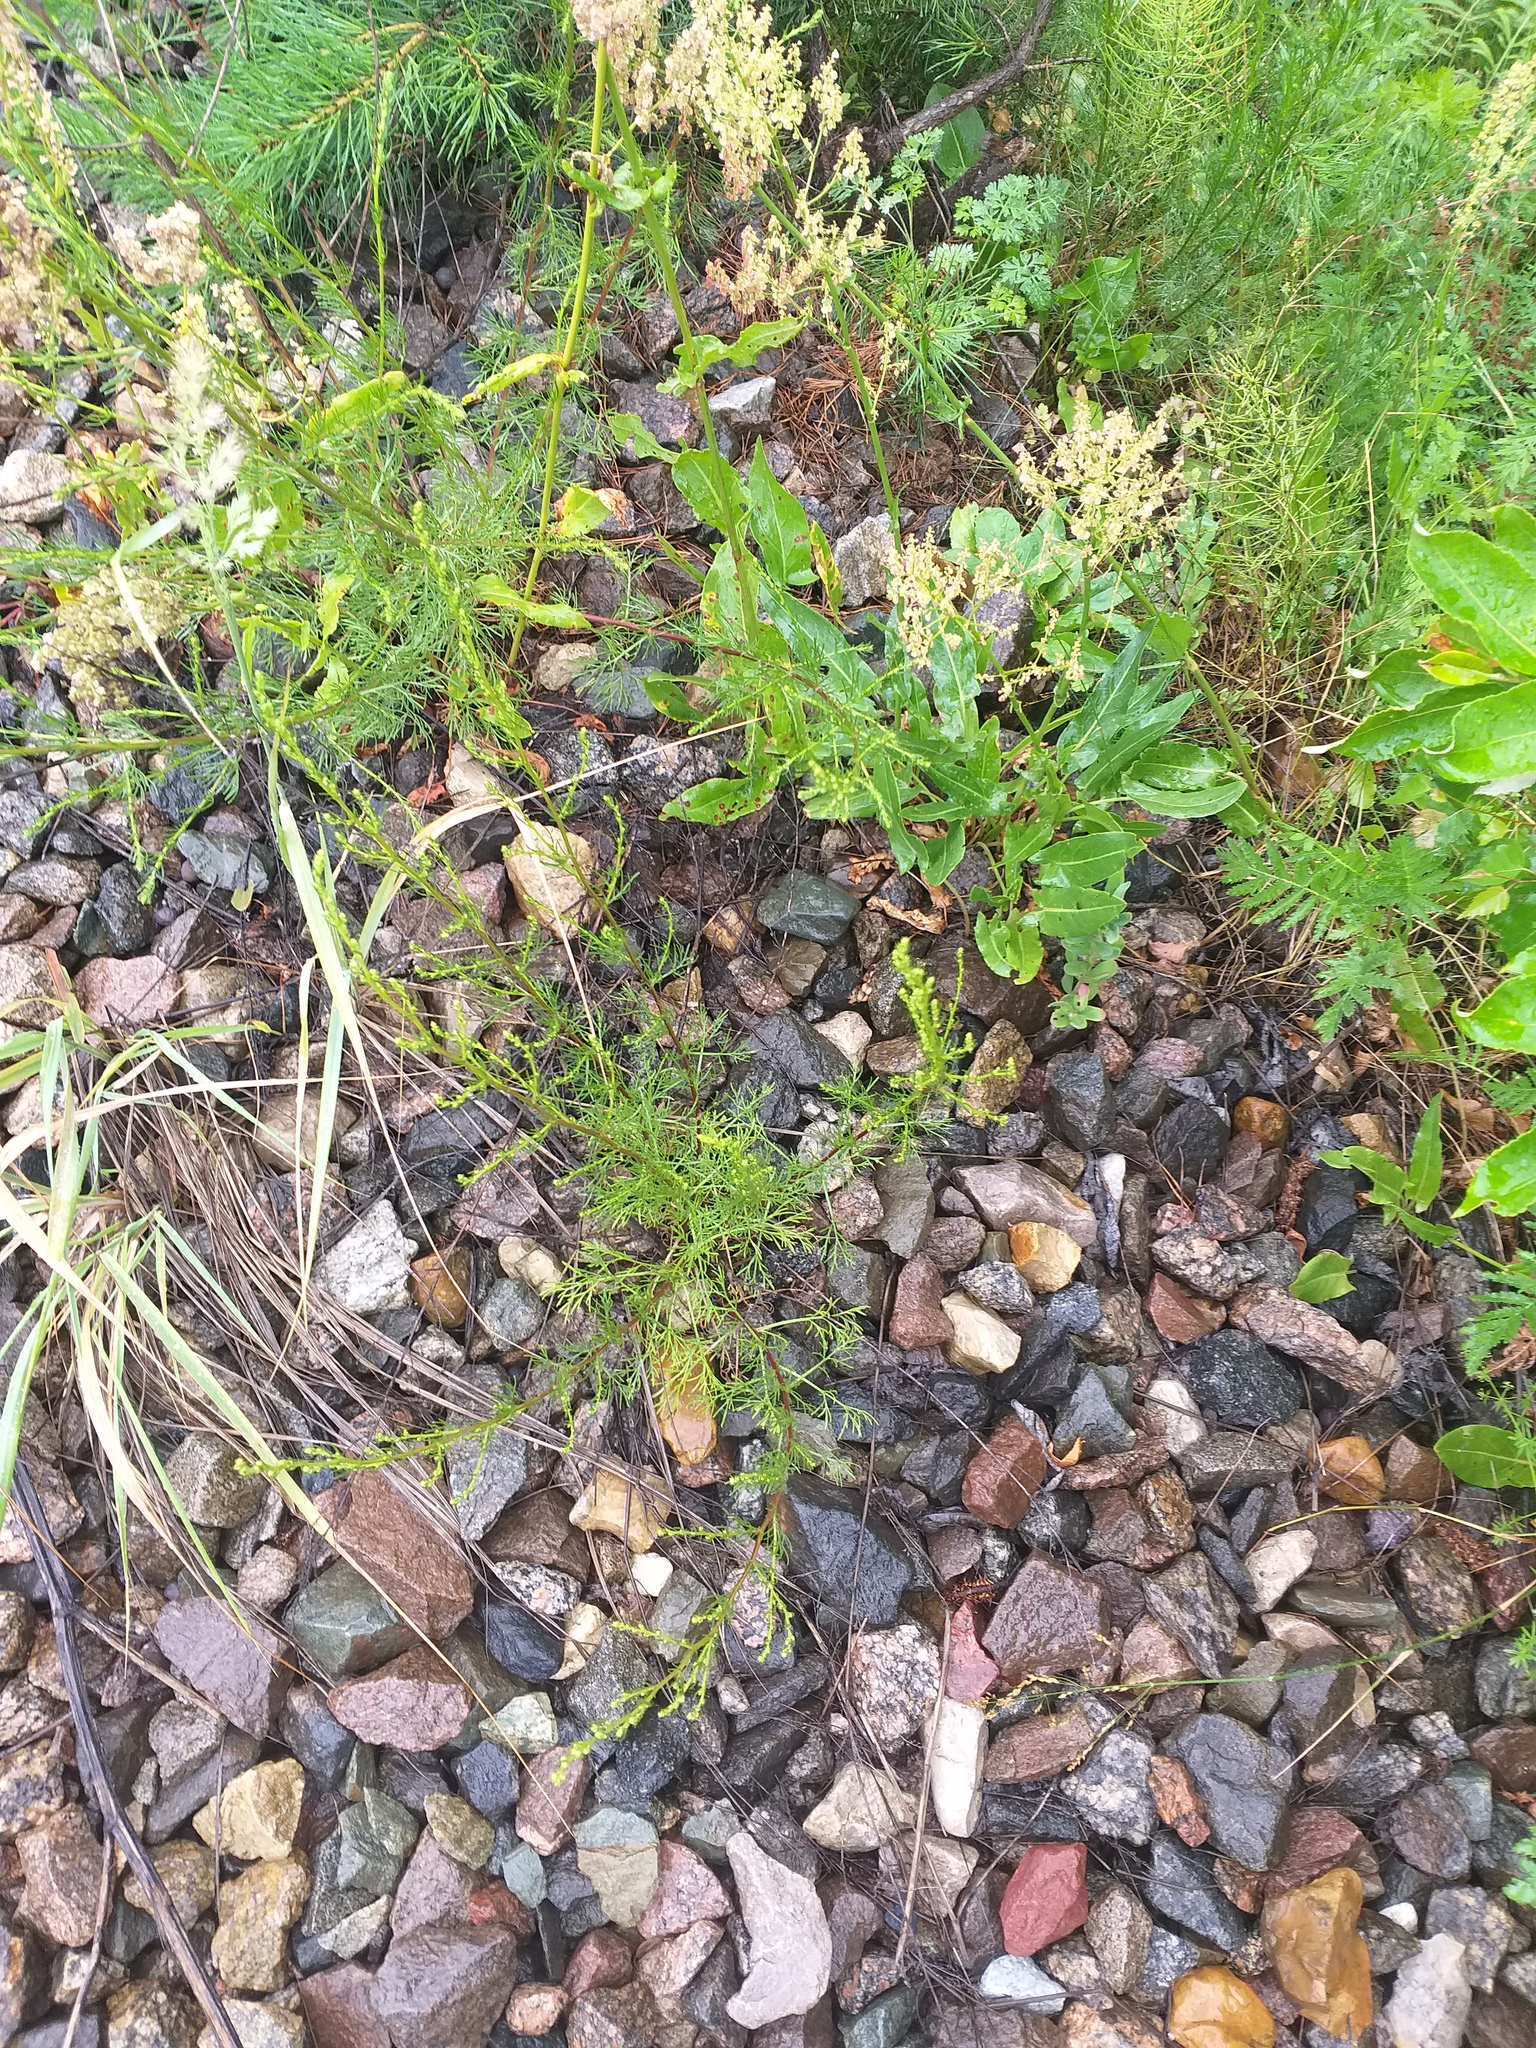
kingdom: Plantae
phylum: Tracheophyta
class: Magnoliopsida
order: Asterales
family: Asteraceae
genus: Artemisia
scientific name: Artemisia campestris
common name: Field wormwood
